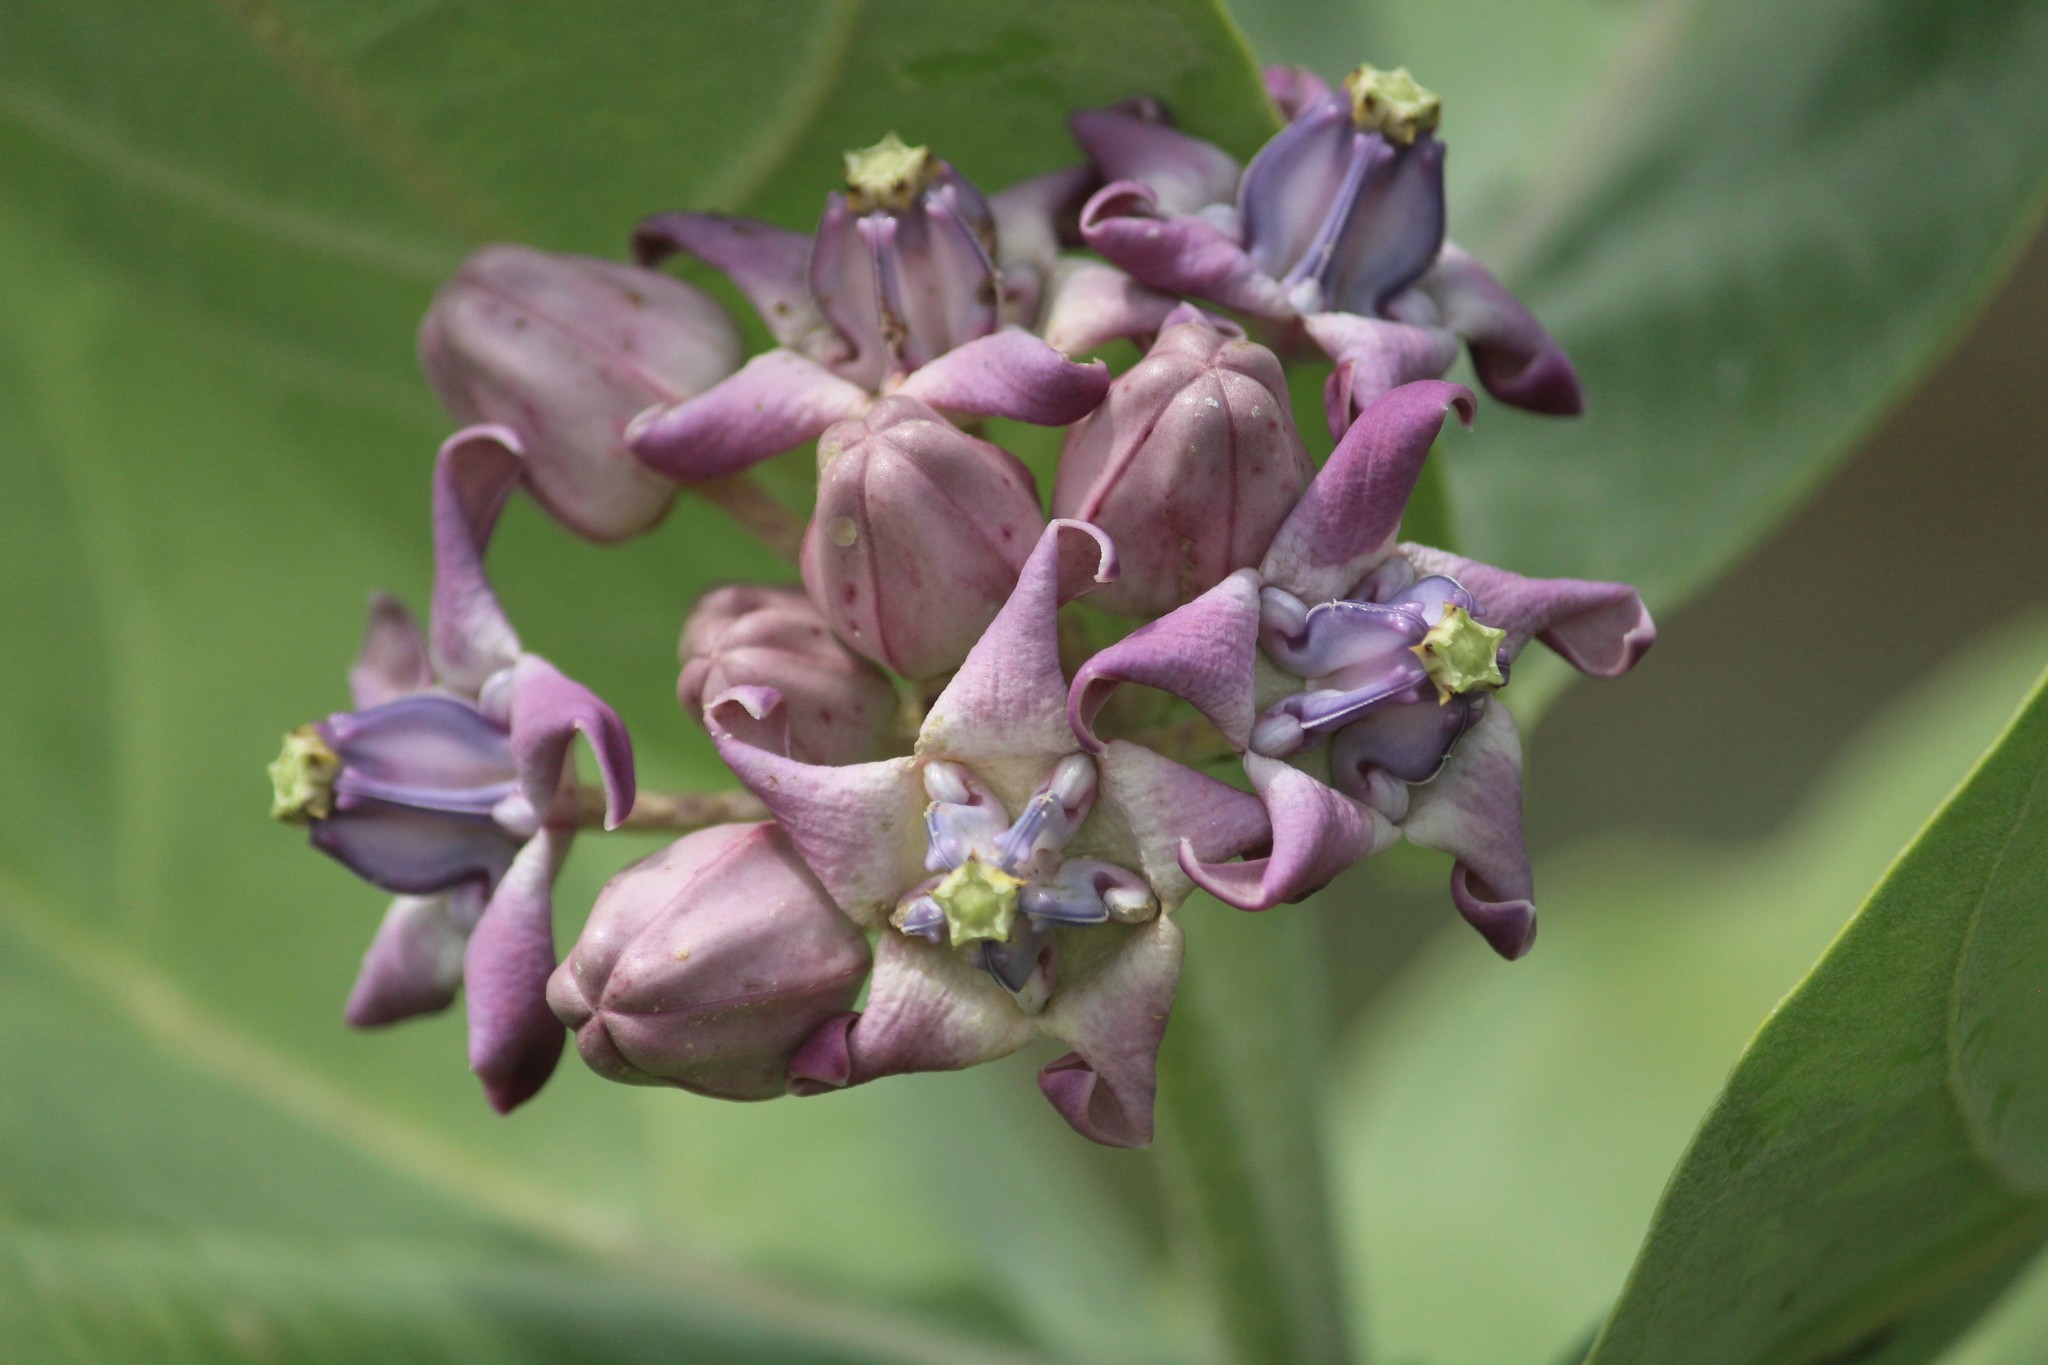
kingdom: Plantae
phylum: Tracheophyta
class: Magnoliopsida
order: Gentianales
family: Apocynaceae
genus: Calotropis
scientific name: Calotropis gigantea
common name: Crown flower
